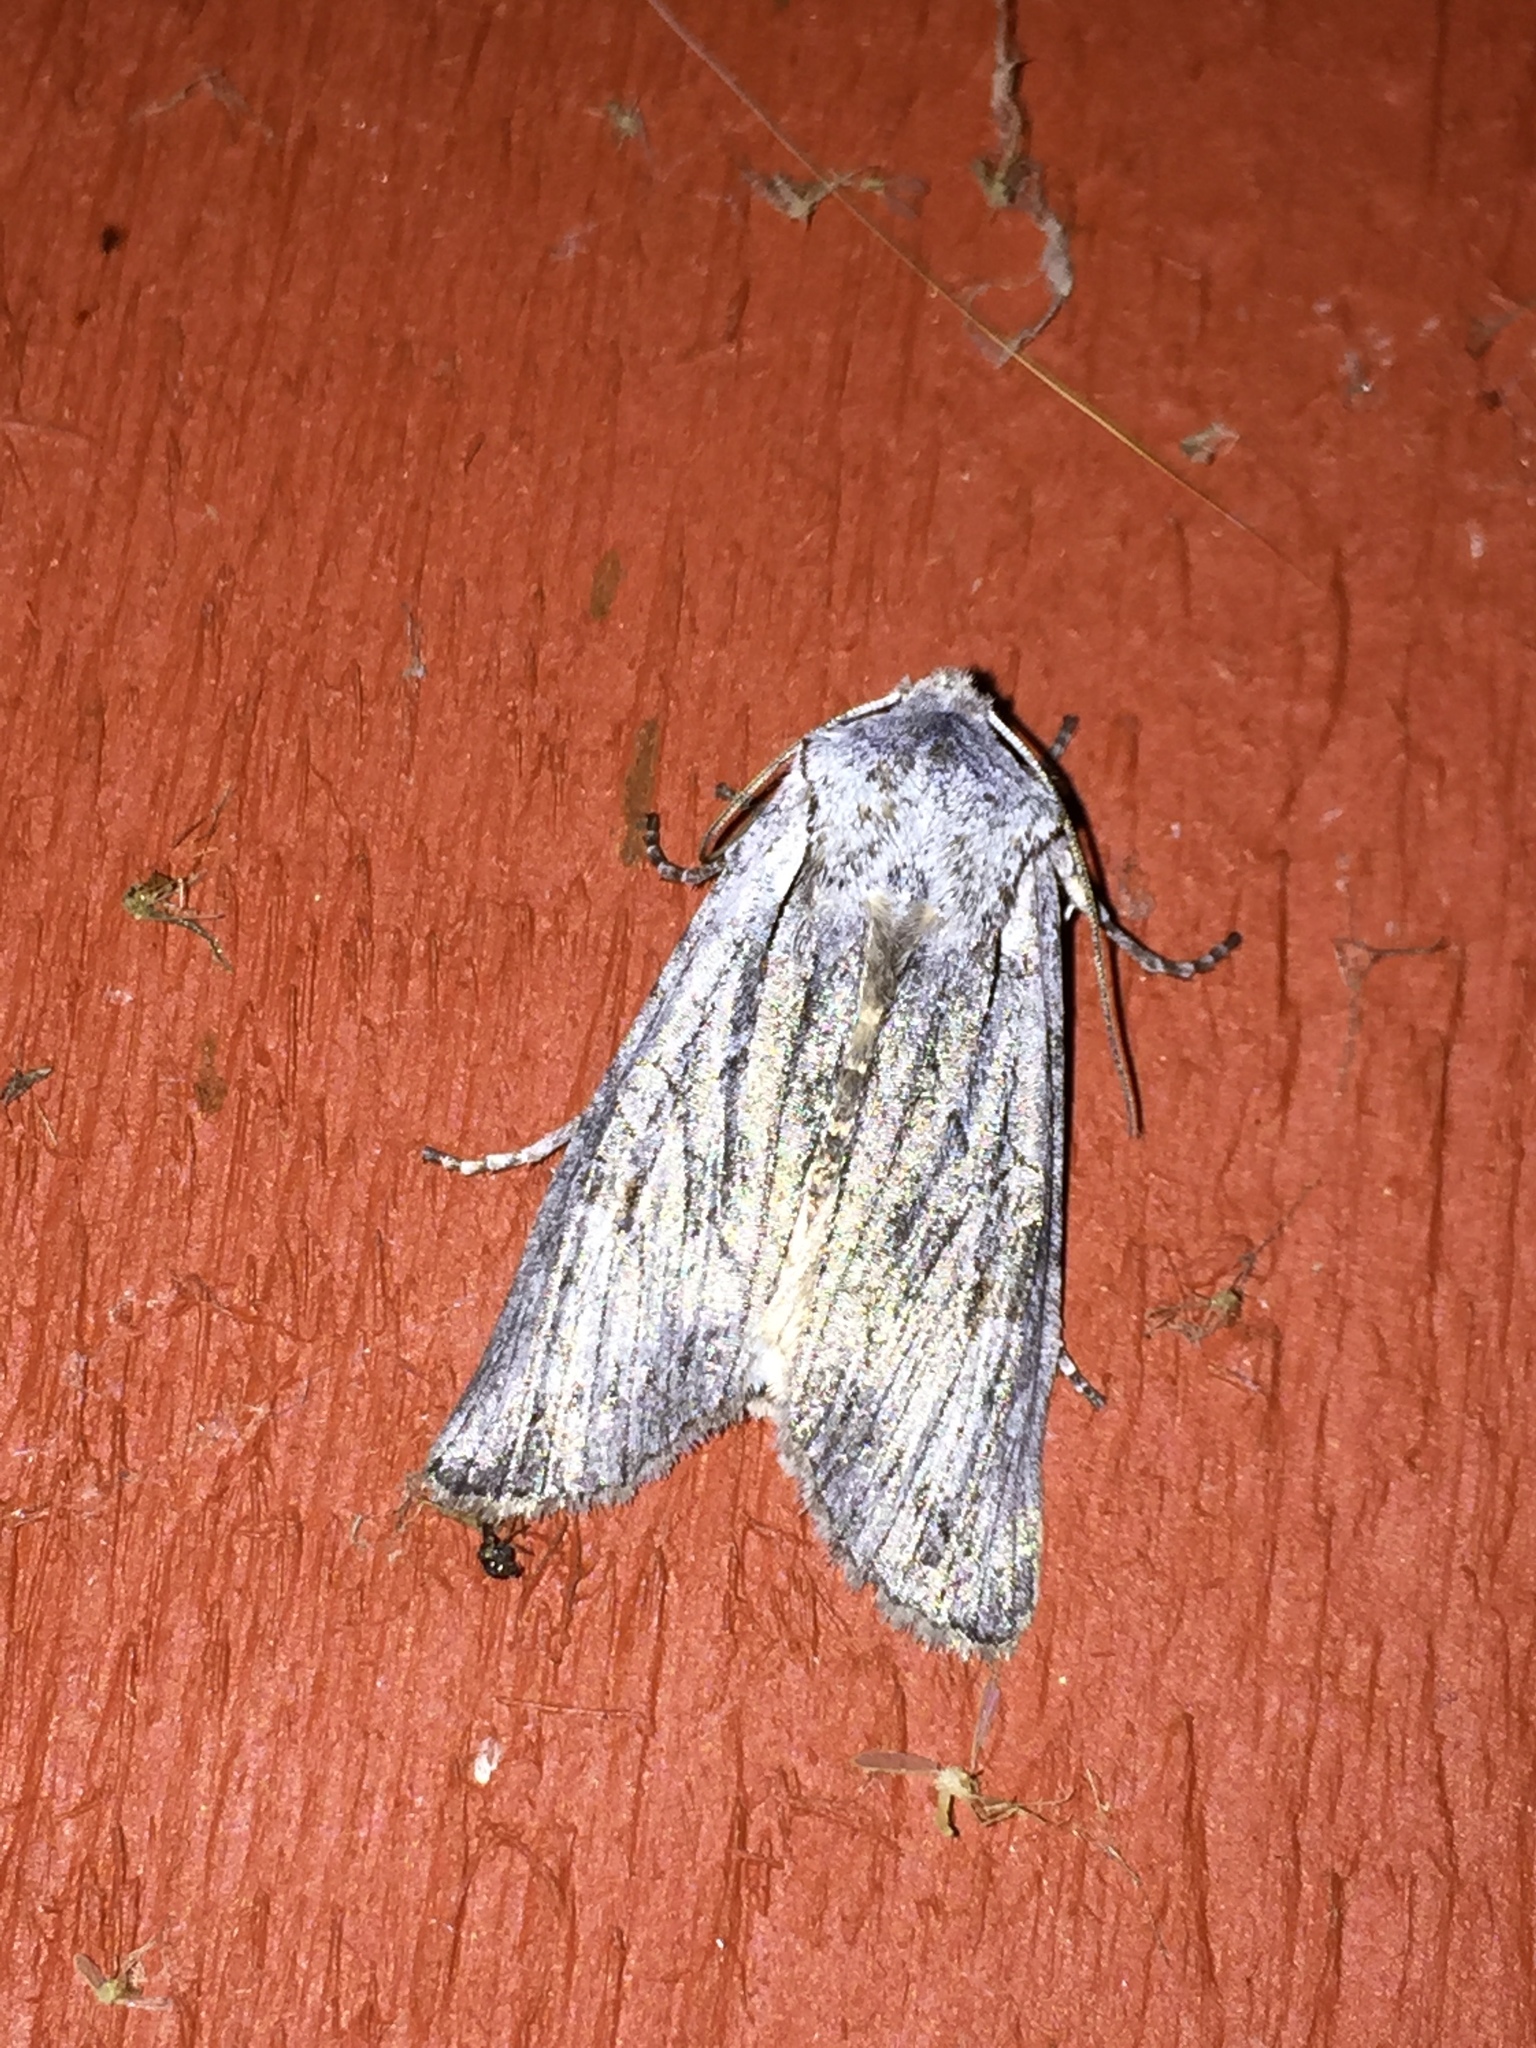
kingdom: Animalia
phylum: Arthropoda
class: Insecta
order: Lepidoptera
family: Noctuidae
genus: Lithophane
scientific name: Lithophane georgii
